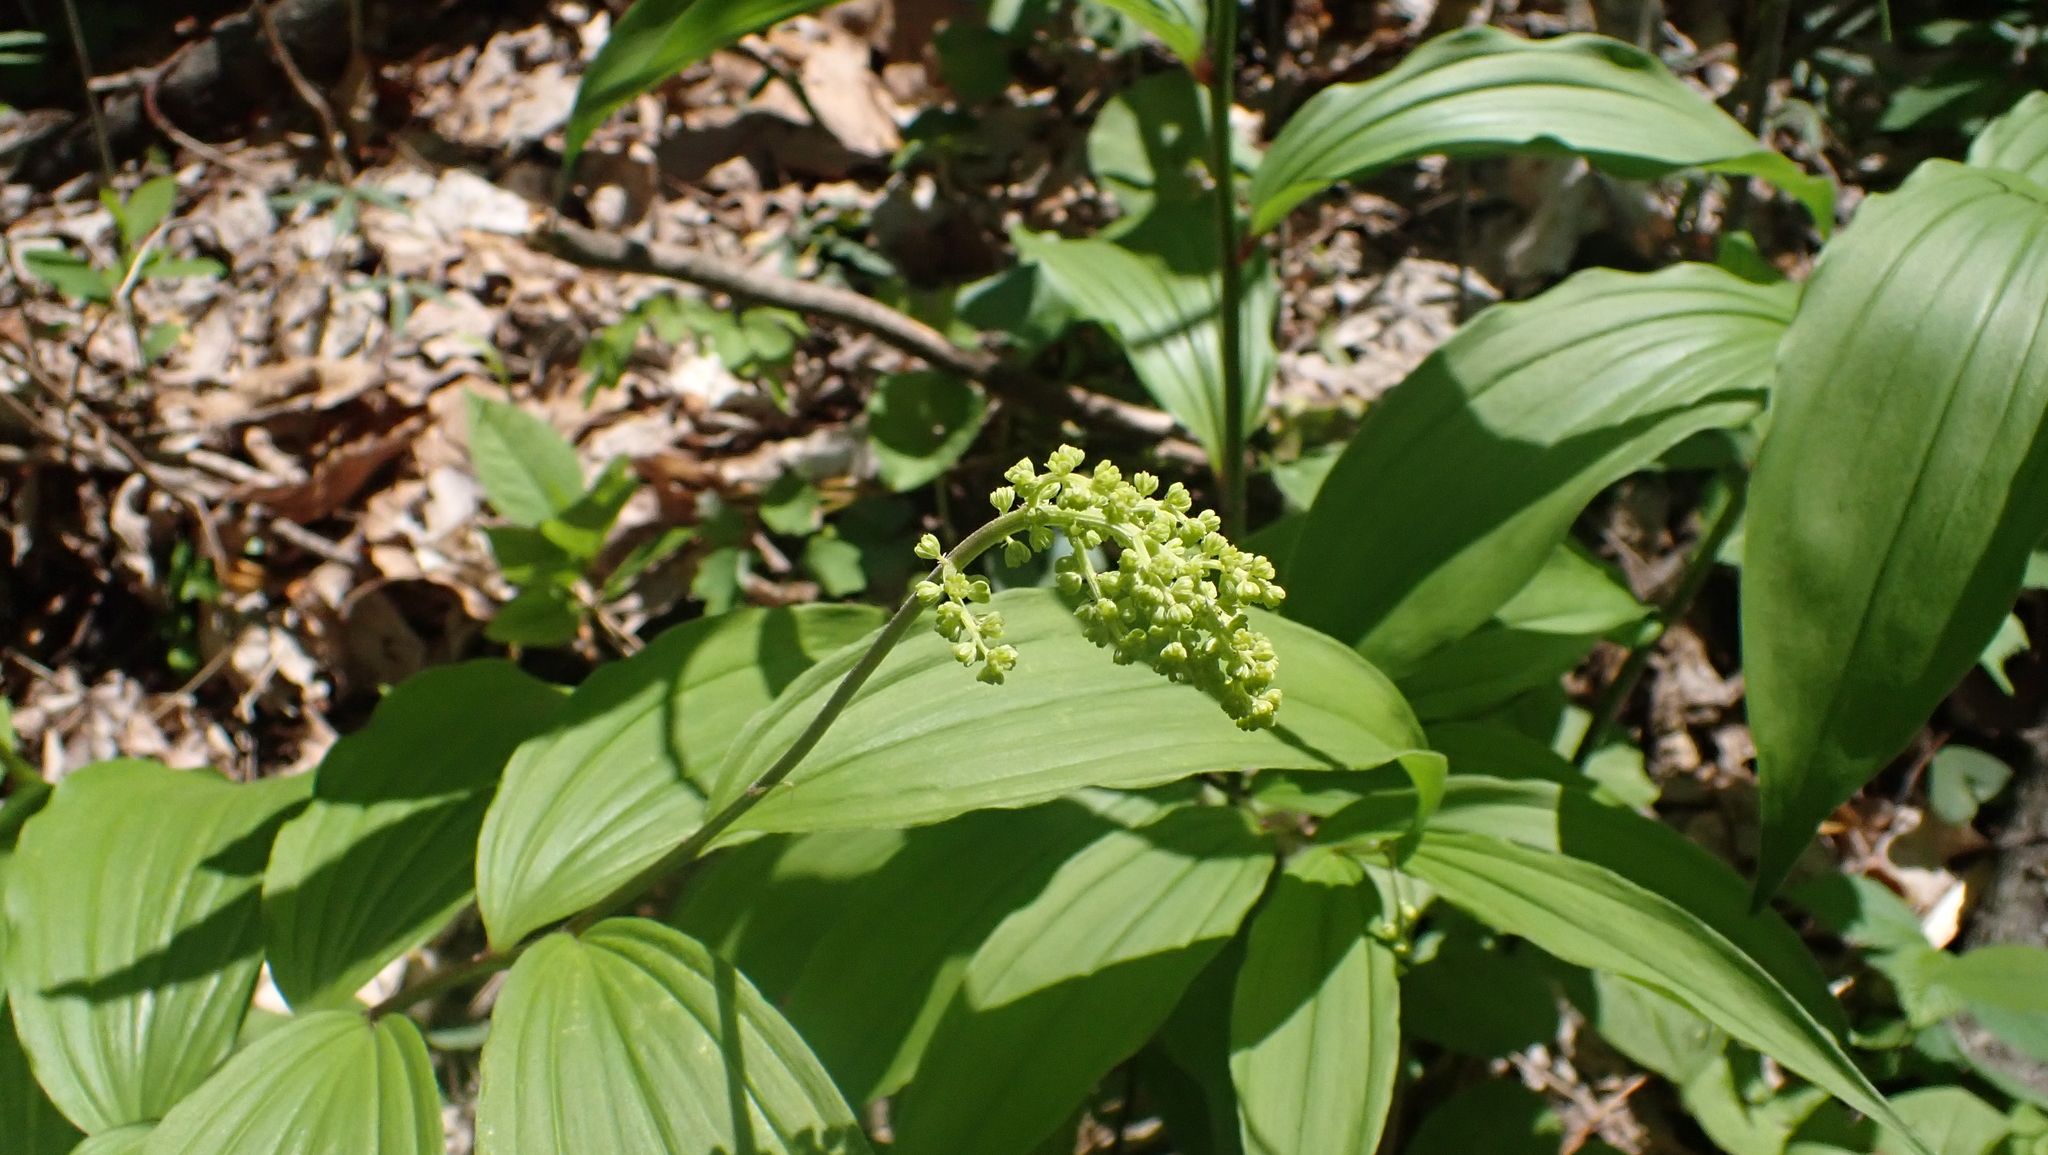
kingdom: Plantae
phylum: Tracheophyta
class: Liliopsida
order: Asparagales
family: Asparagaceae
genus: Maianthemum
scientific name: Maianthemum racemosum
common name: False spikenard
